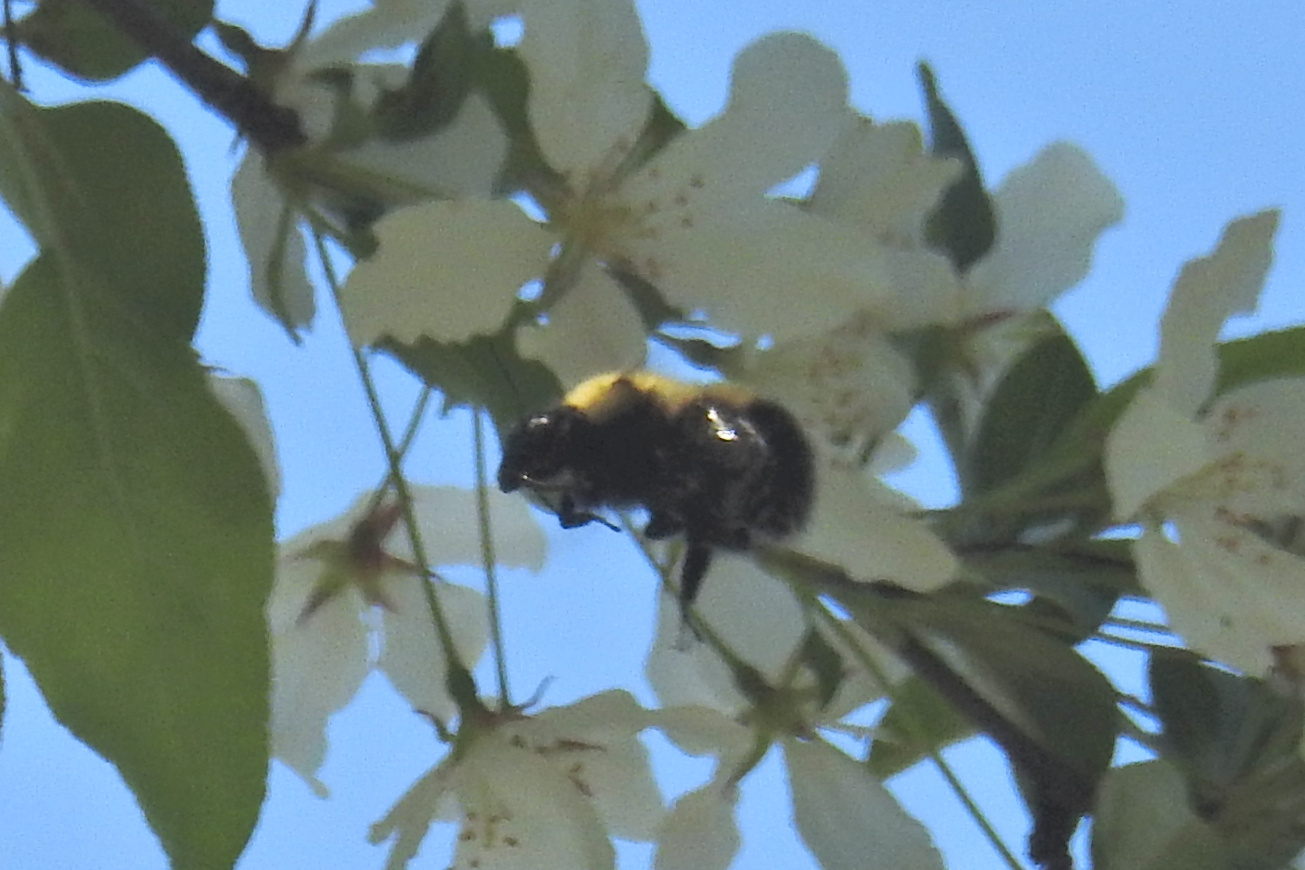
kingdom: Animalia
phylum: Arthropoda
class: Insecta
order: Hymenoptera
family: Apidae
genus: Bombus
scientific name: Bombus perplexus
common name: Confusing bumble bee
